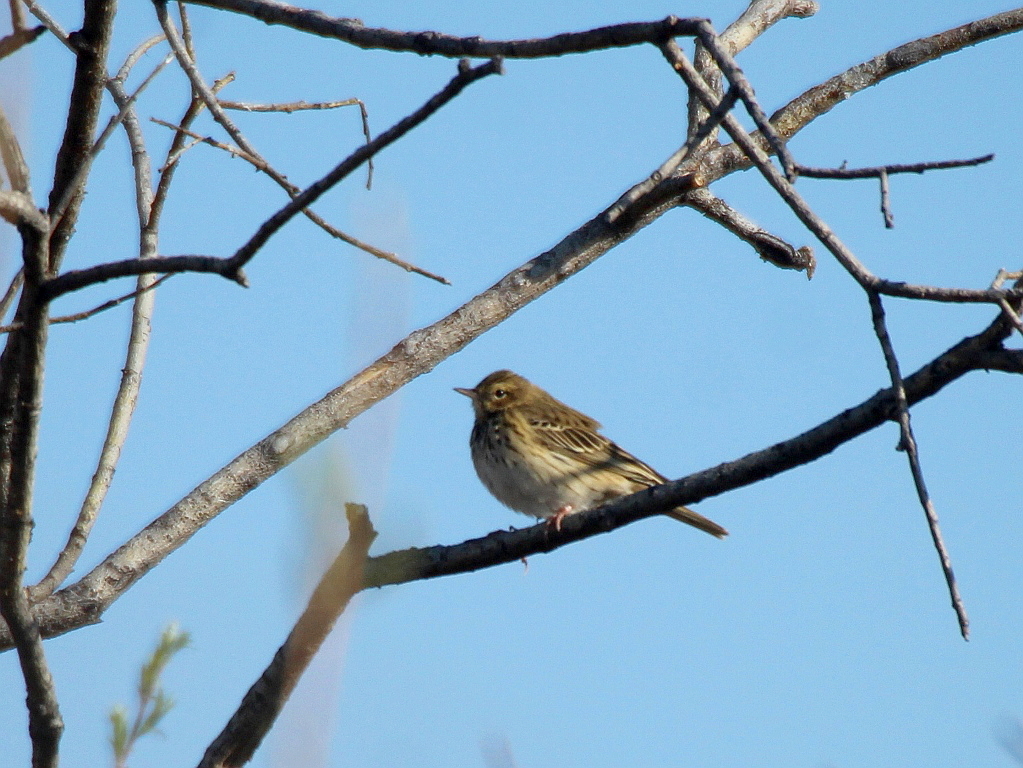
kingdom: Animalia
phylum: Chordata
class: Aves
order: Passeriformes
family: Motacillidae
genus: Anthus
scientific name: Anthus trivialis
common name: Tree pipit
